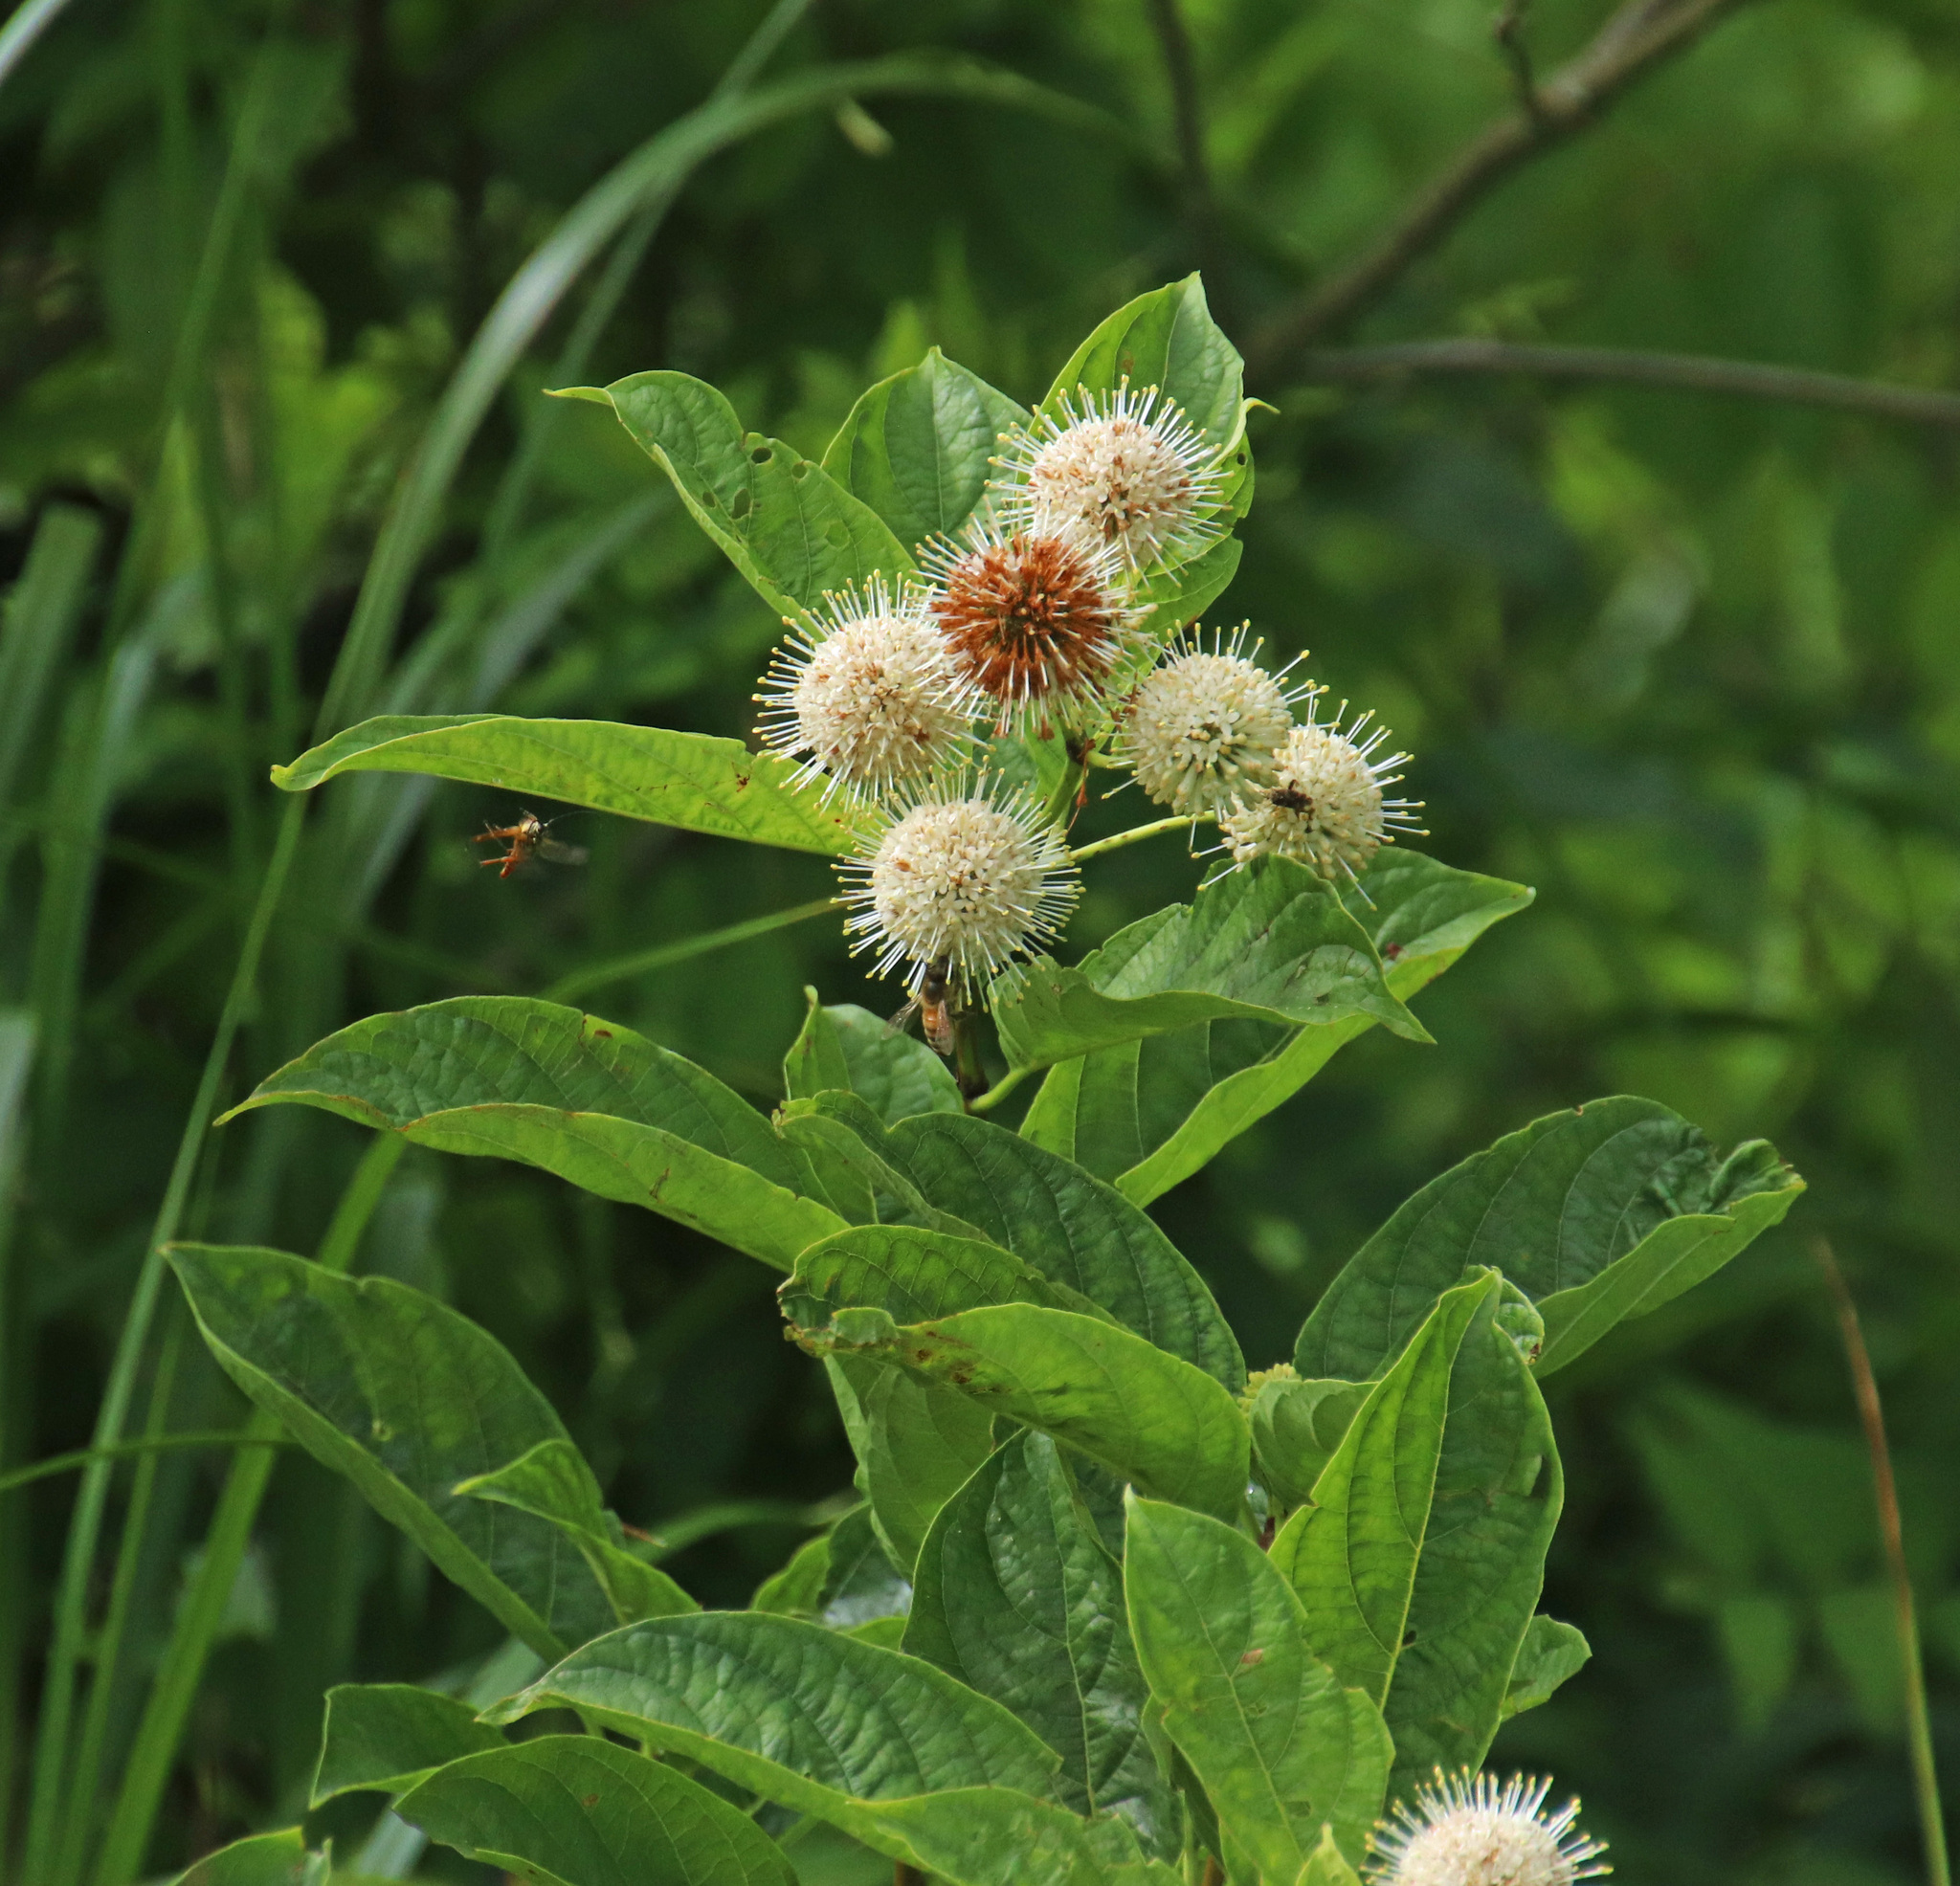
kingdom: Plantae
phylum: Tracheophyta
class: Magnoliopsida
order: Gentianales
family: Rubiaceae
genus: Cephalanthus
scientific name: Cephalanthus occidentalis
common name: Button-willow
